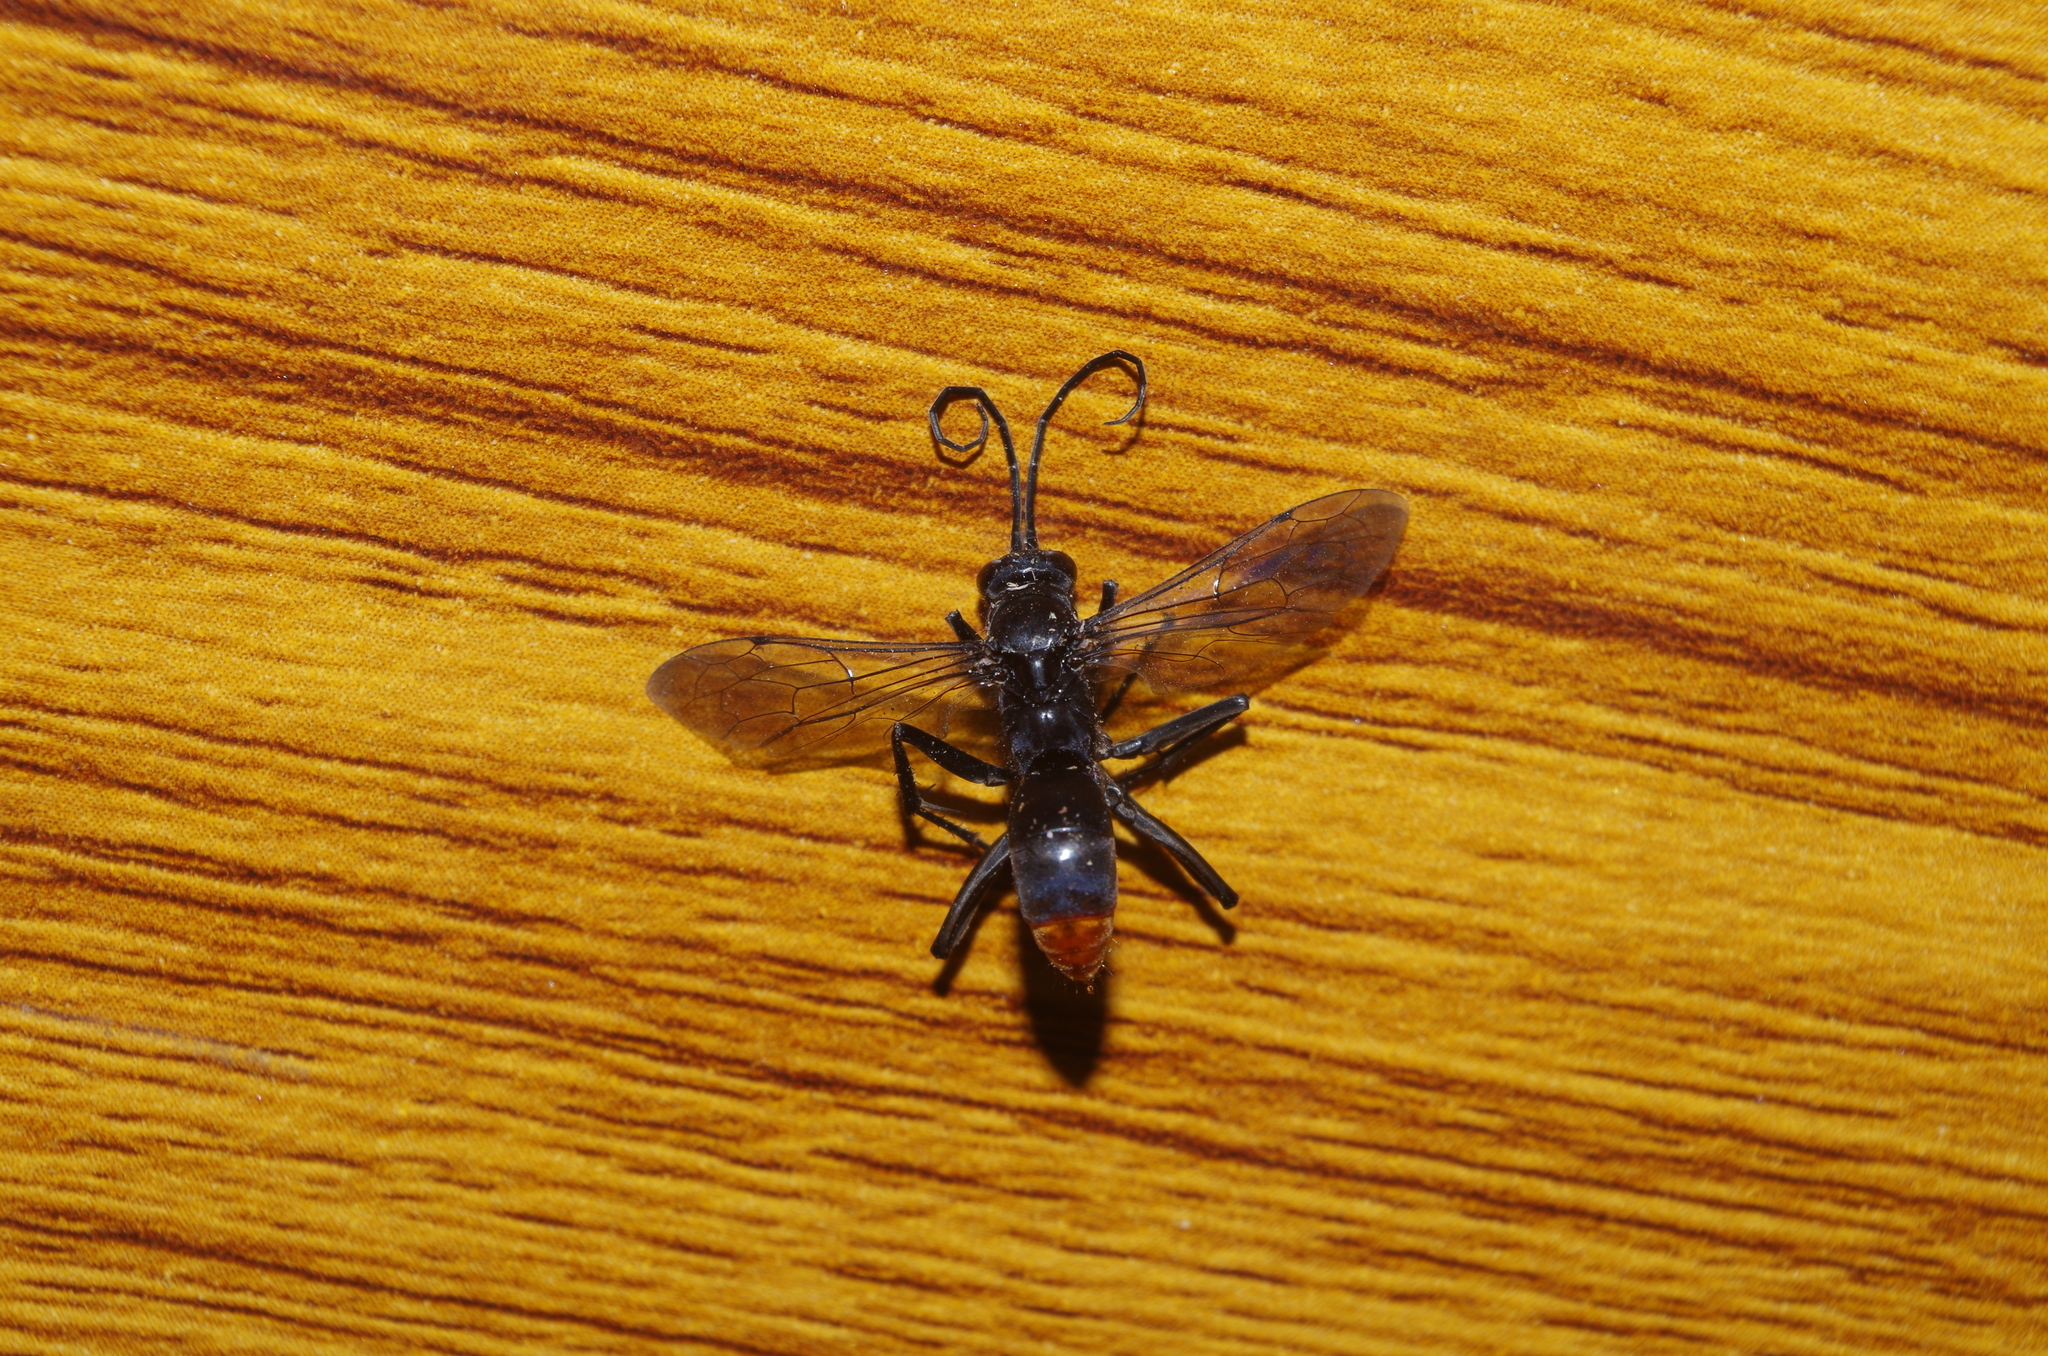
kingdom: Animalia
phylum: Arthropoda
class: Insecta
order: Hymenoptera
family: Pompilidae
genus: Tachypompilus
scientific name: Tachypompilus analis
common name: Spider wasp
